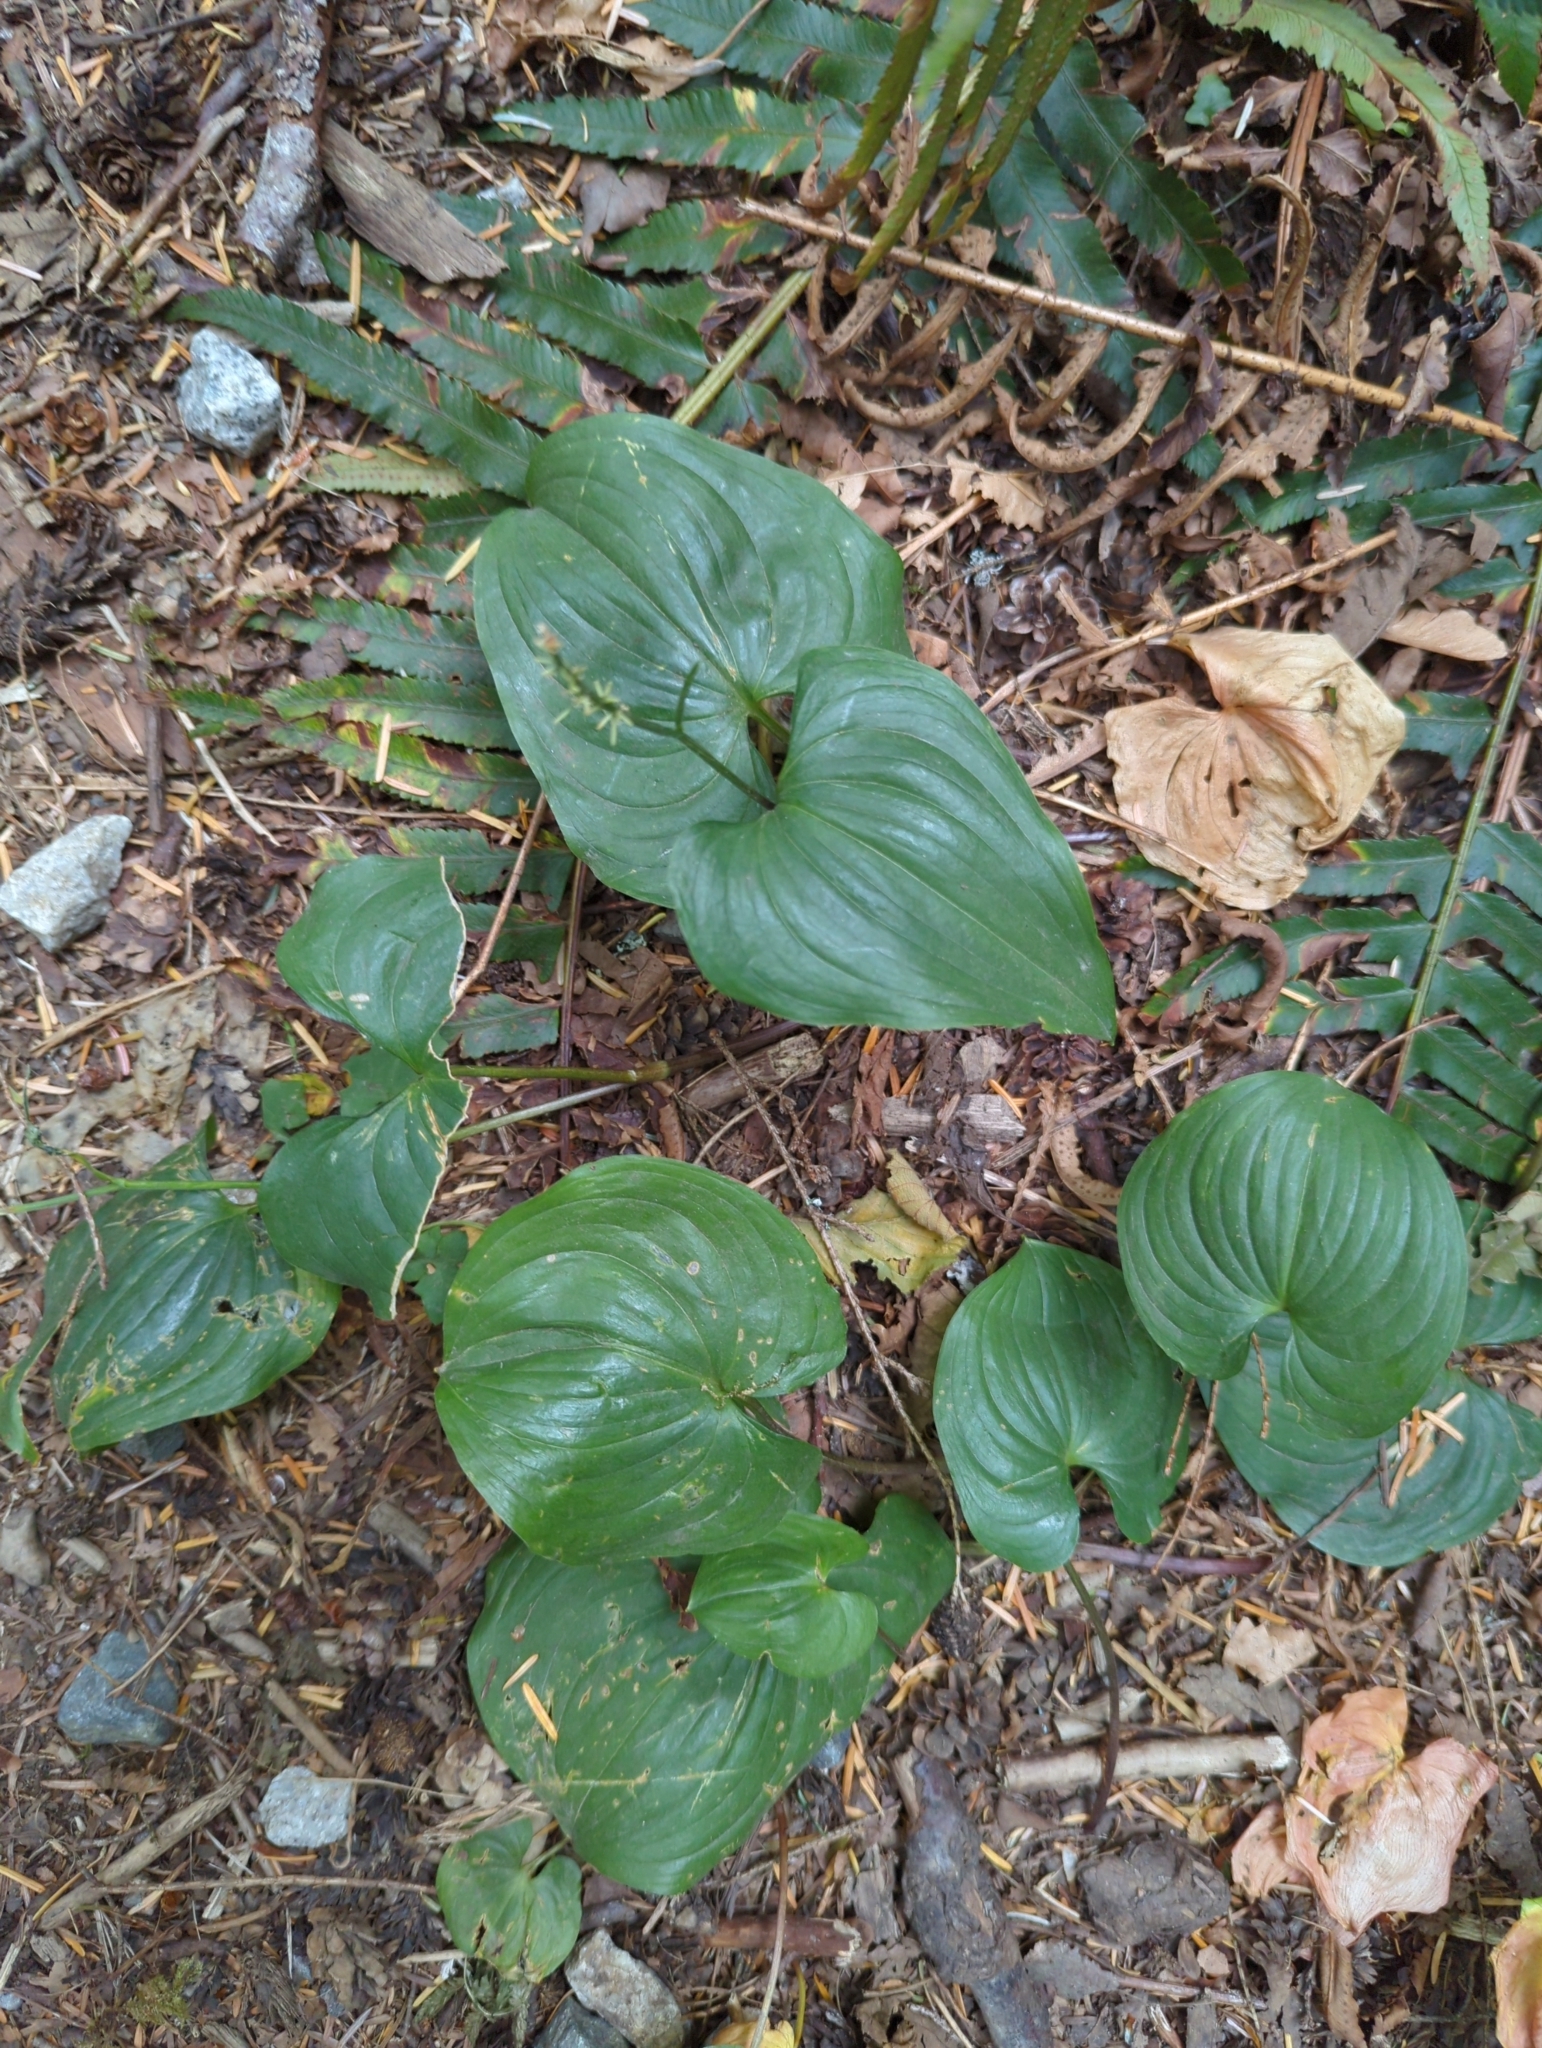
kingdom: Plantae
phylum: Tracheophyta
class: Liliopsida
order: Asparagales
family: Asparagaceae
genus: Maianthemum
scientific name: Maianthemum dilatatum
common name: False lily-of-the-valley
